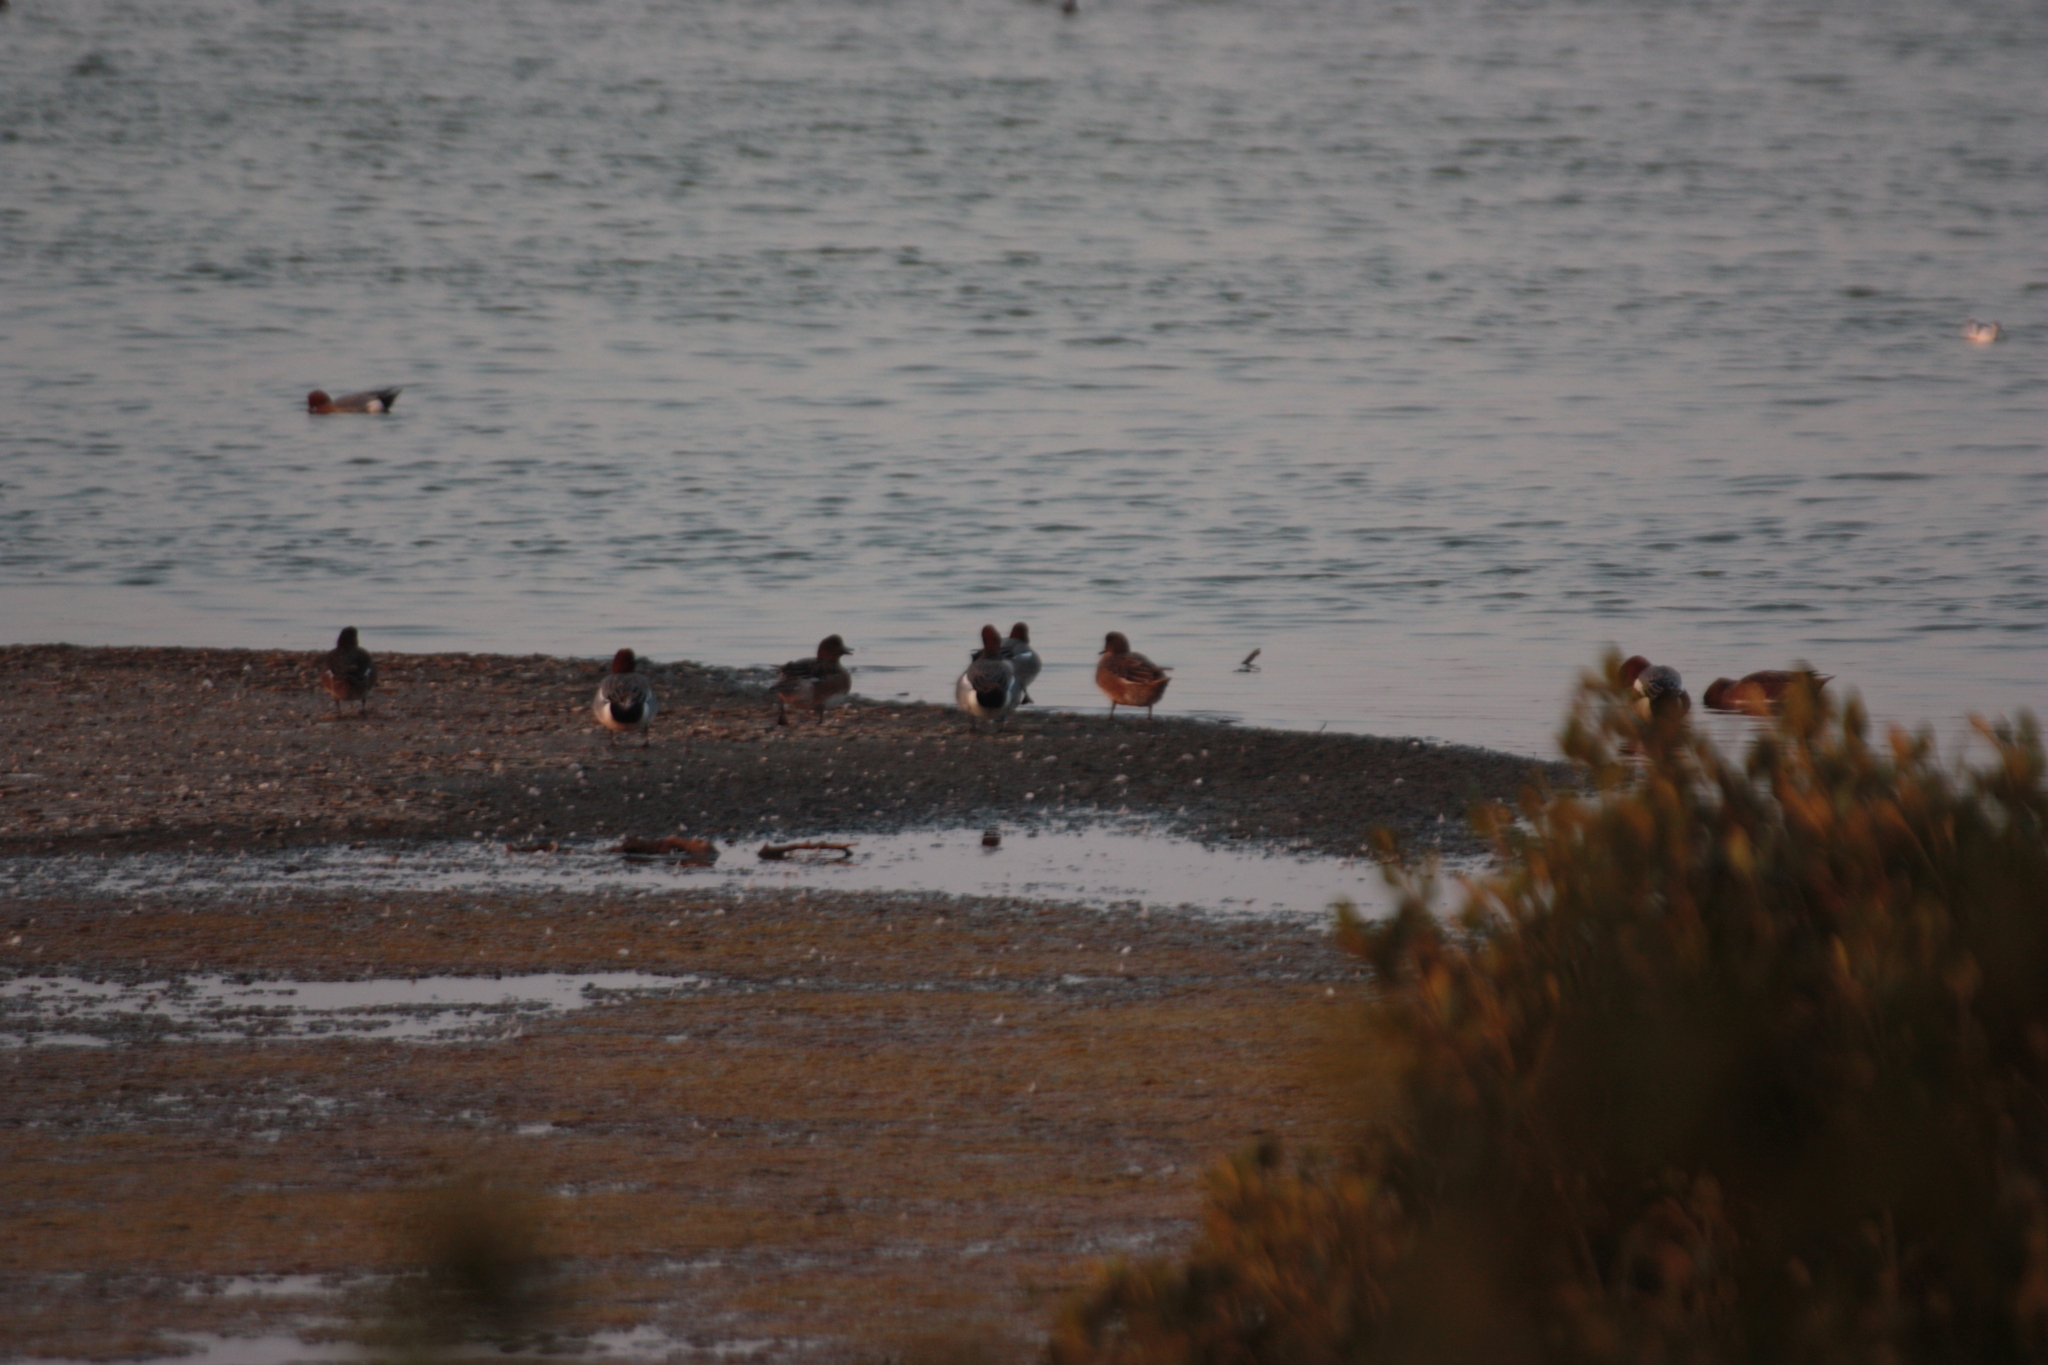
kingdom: Animalia
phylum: Chordata
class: Aves
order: Anseriformes
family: Anatidae
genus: Mareca
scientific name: Mareca penelope
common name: Eurasian wigeon
